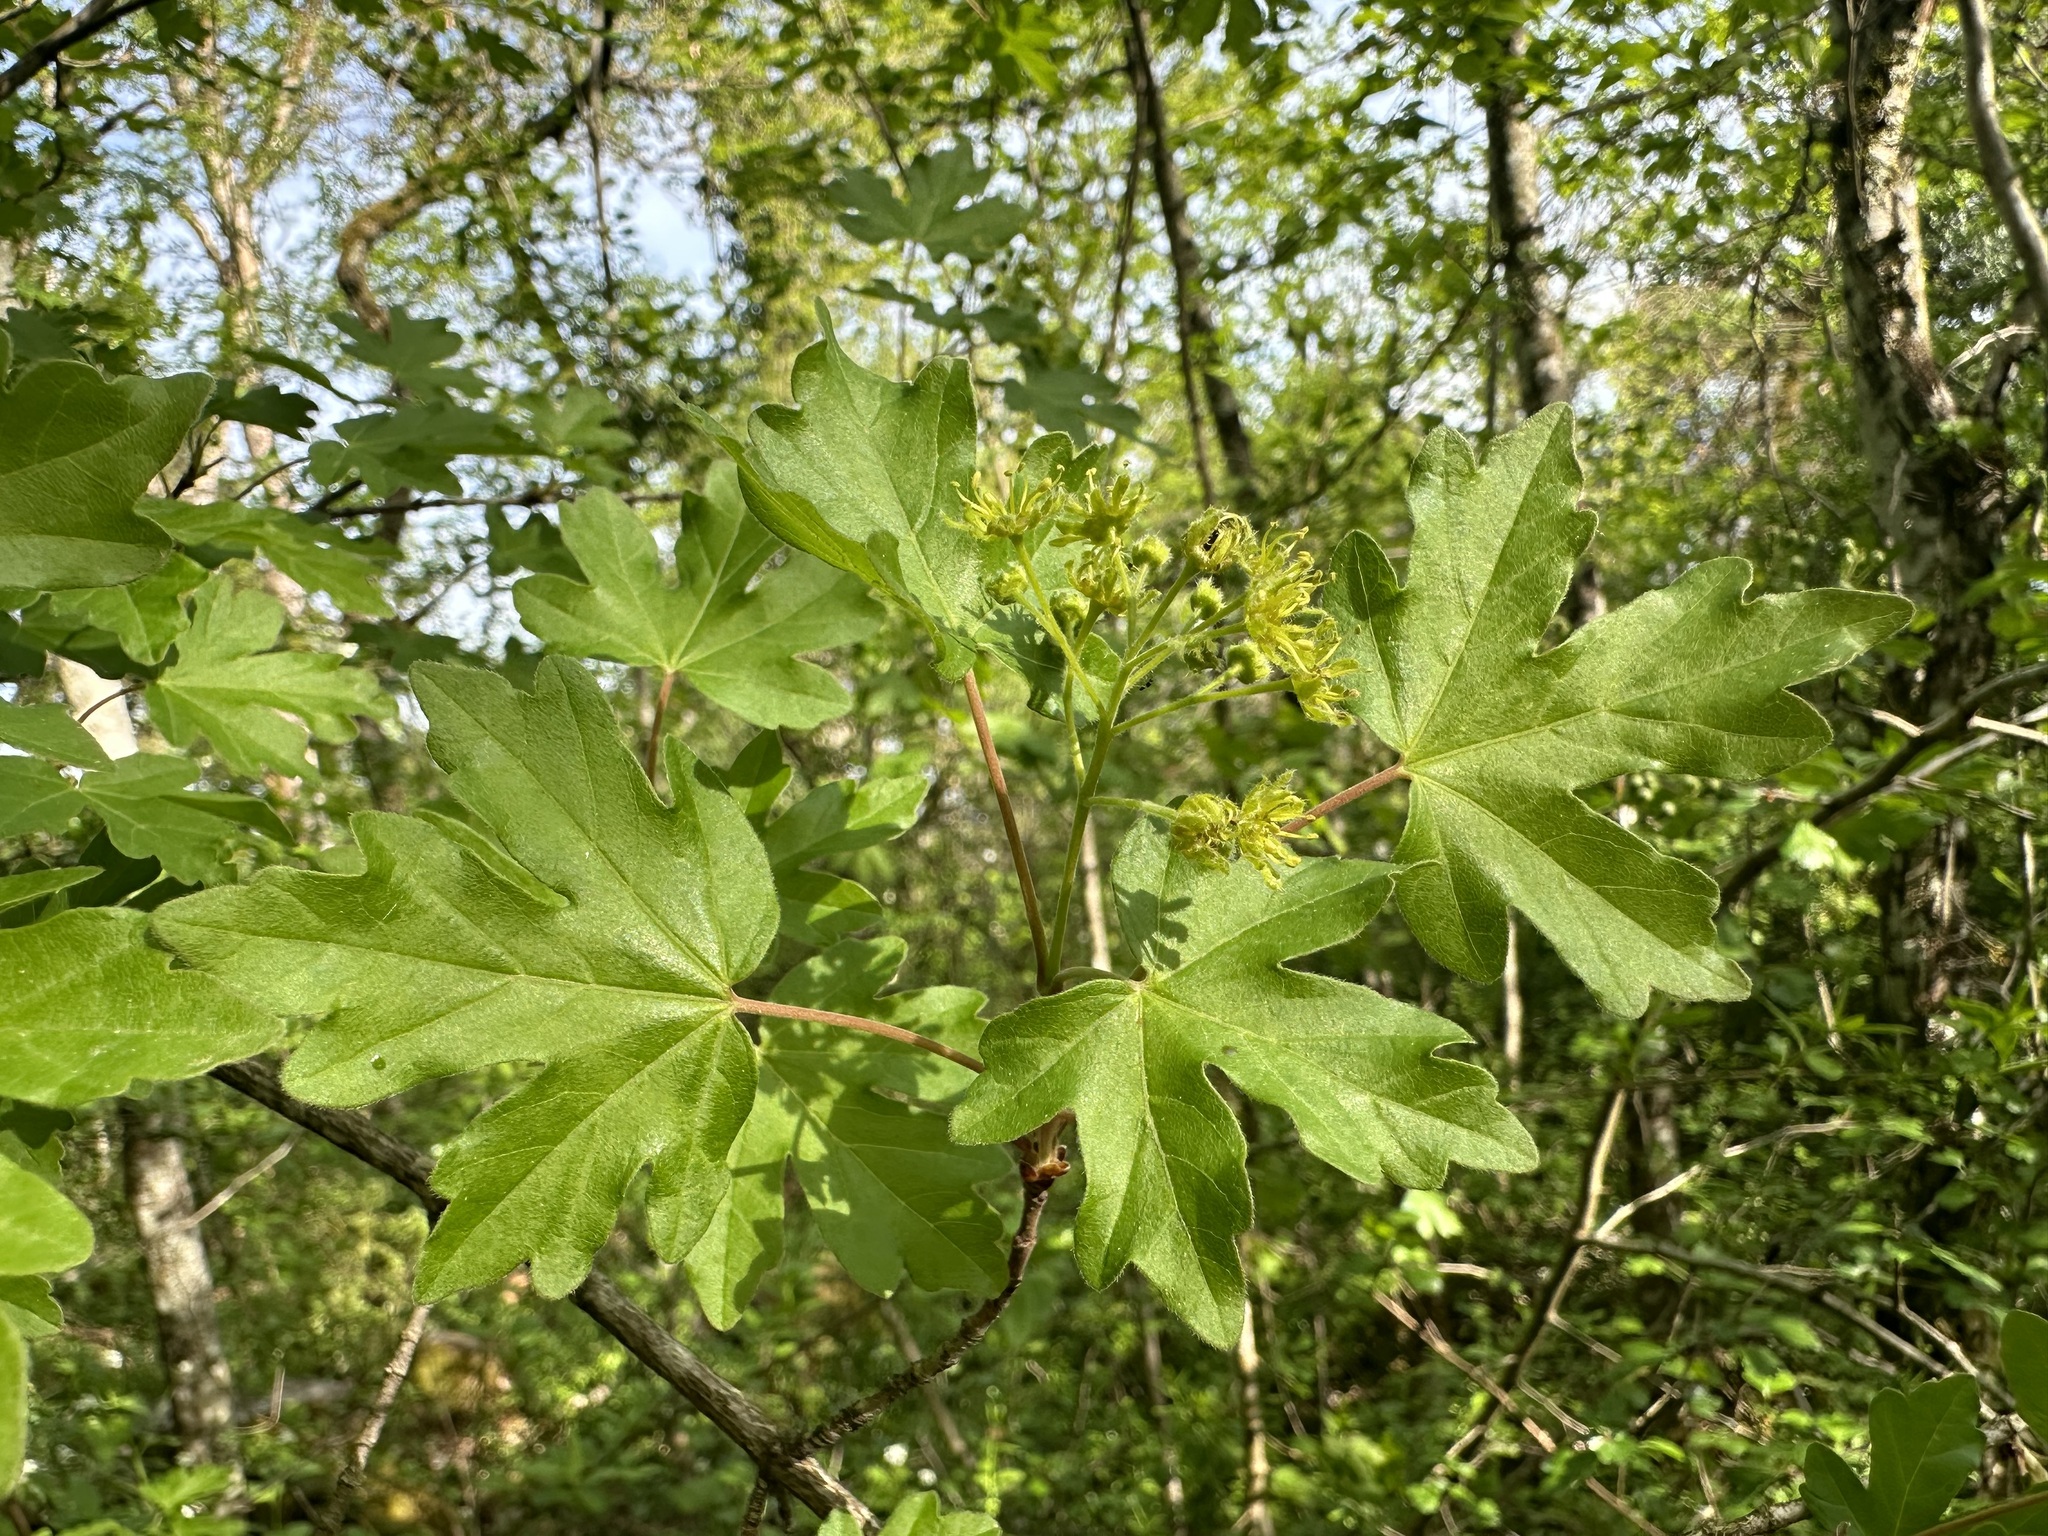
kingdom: Plantae
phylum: Tracheophyta
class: Magnoliopsida
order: Sapindales
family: Sapindaceae
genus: Acer
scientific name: Acer campestre
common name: Field maple
